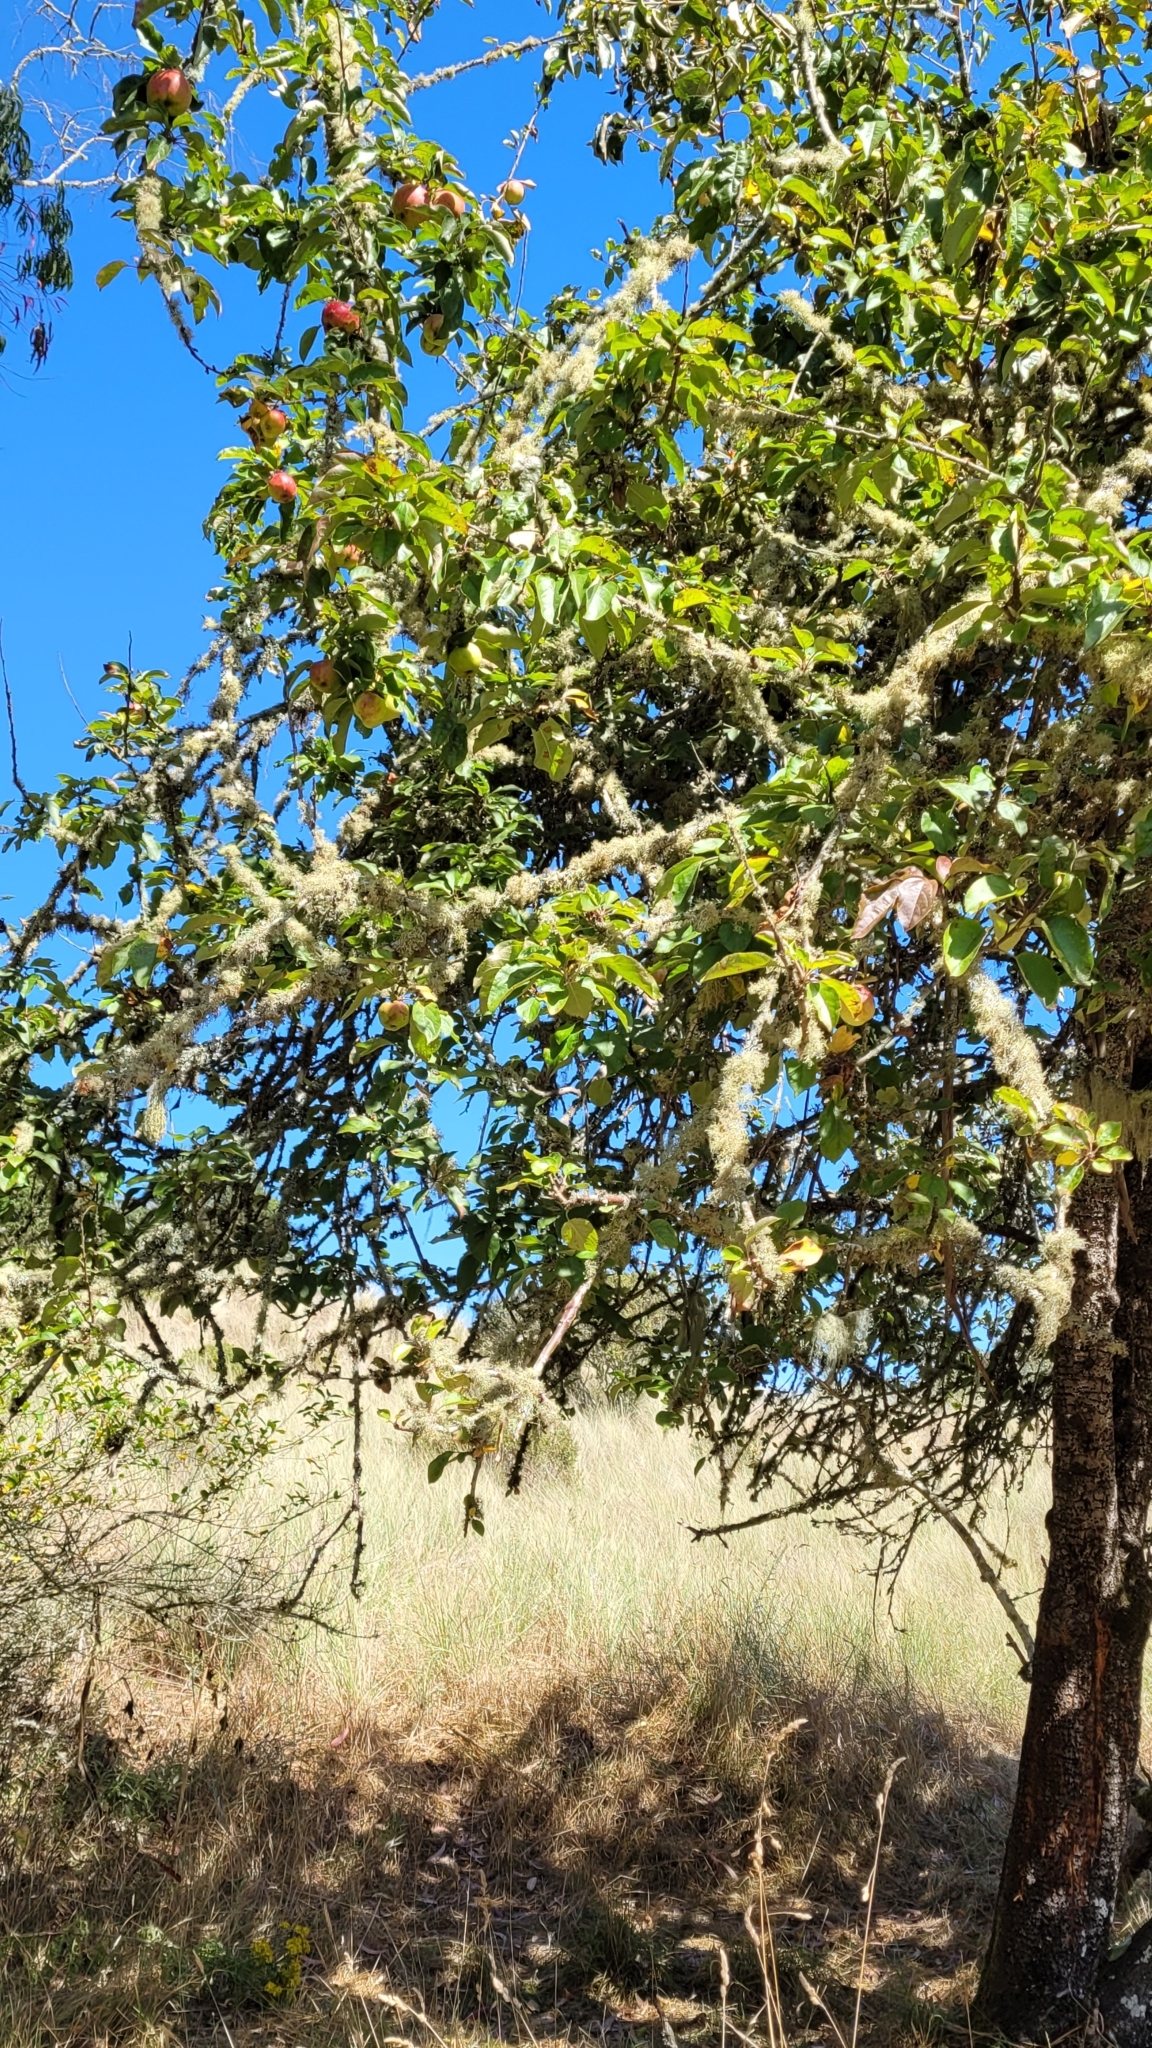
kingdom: Plantae
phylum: Tracheophyta
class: Magnoliopsida
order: Rosales
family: Rosaceae
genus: Malus
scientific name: Malus domestica
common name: Apple
